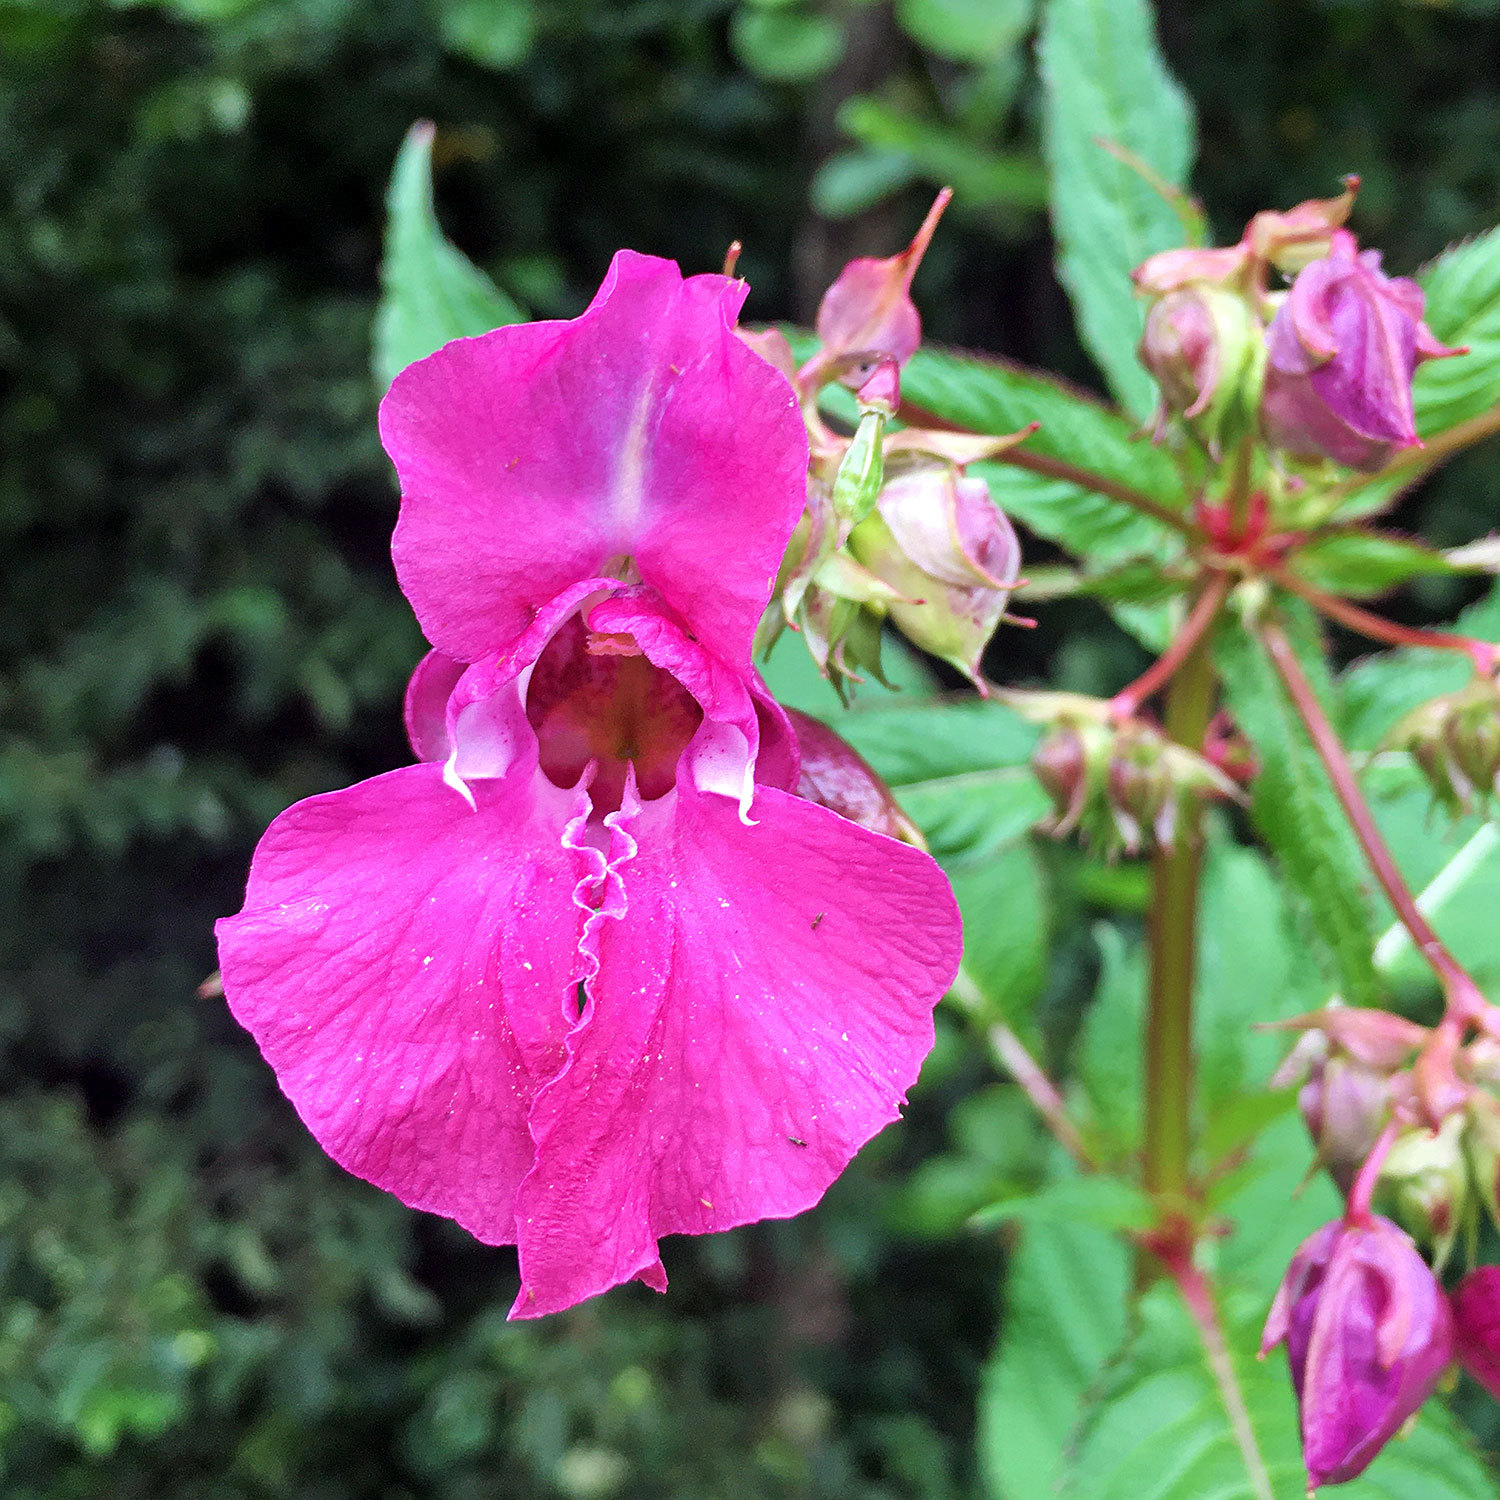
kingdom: Plantae
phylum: Tracheophyta
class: Magnoliopsida
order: Ericales
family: Balsaminaceae
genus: Impatiens
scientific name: Impatiens glandulifera
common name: Himalayan balsam
